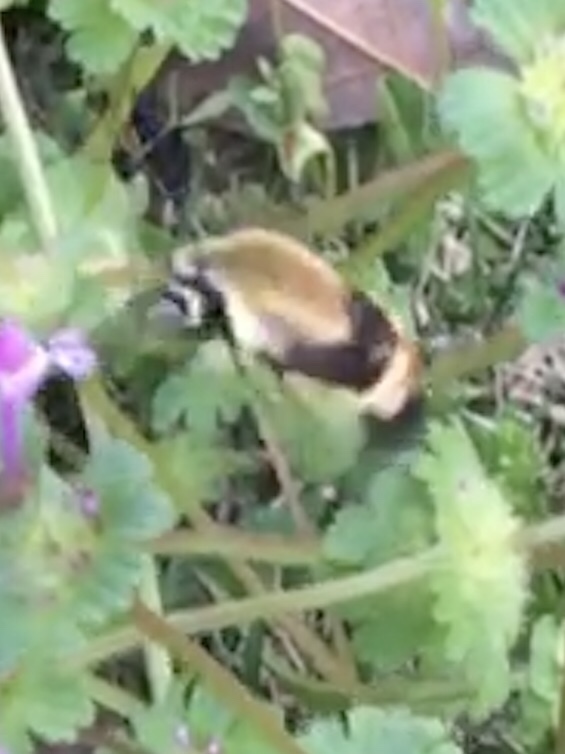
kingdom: Animalia
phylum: Arthropoda
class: Insecta
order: Lepidoptera
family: Sphingidae
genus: Hemaris
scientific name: Hemaris diffinis
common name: Bumblebee moth
